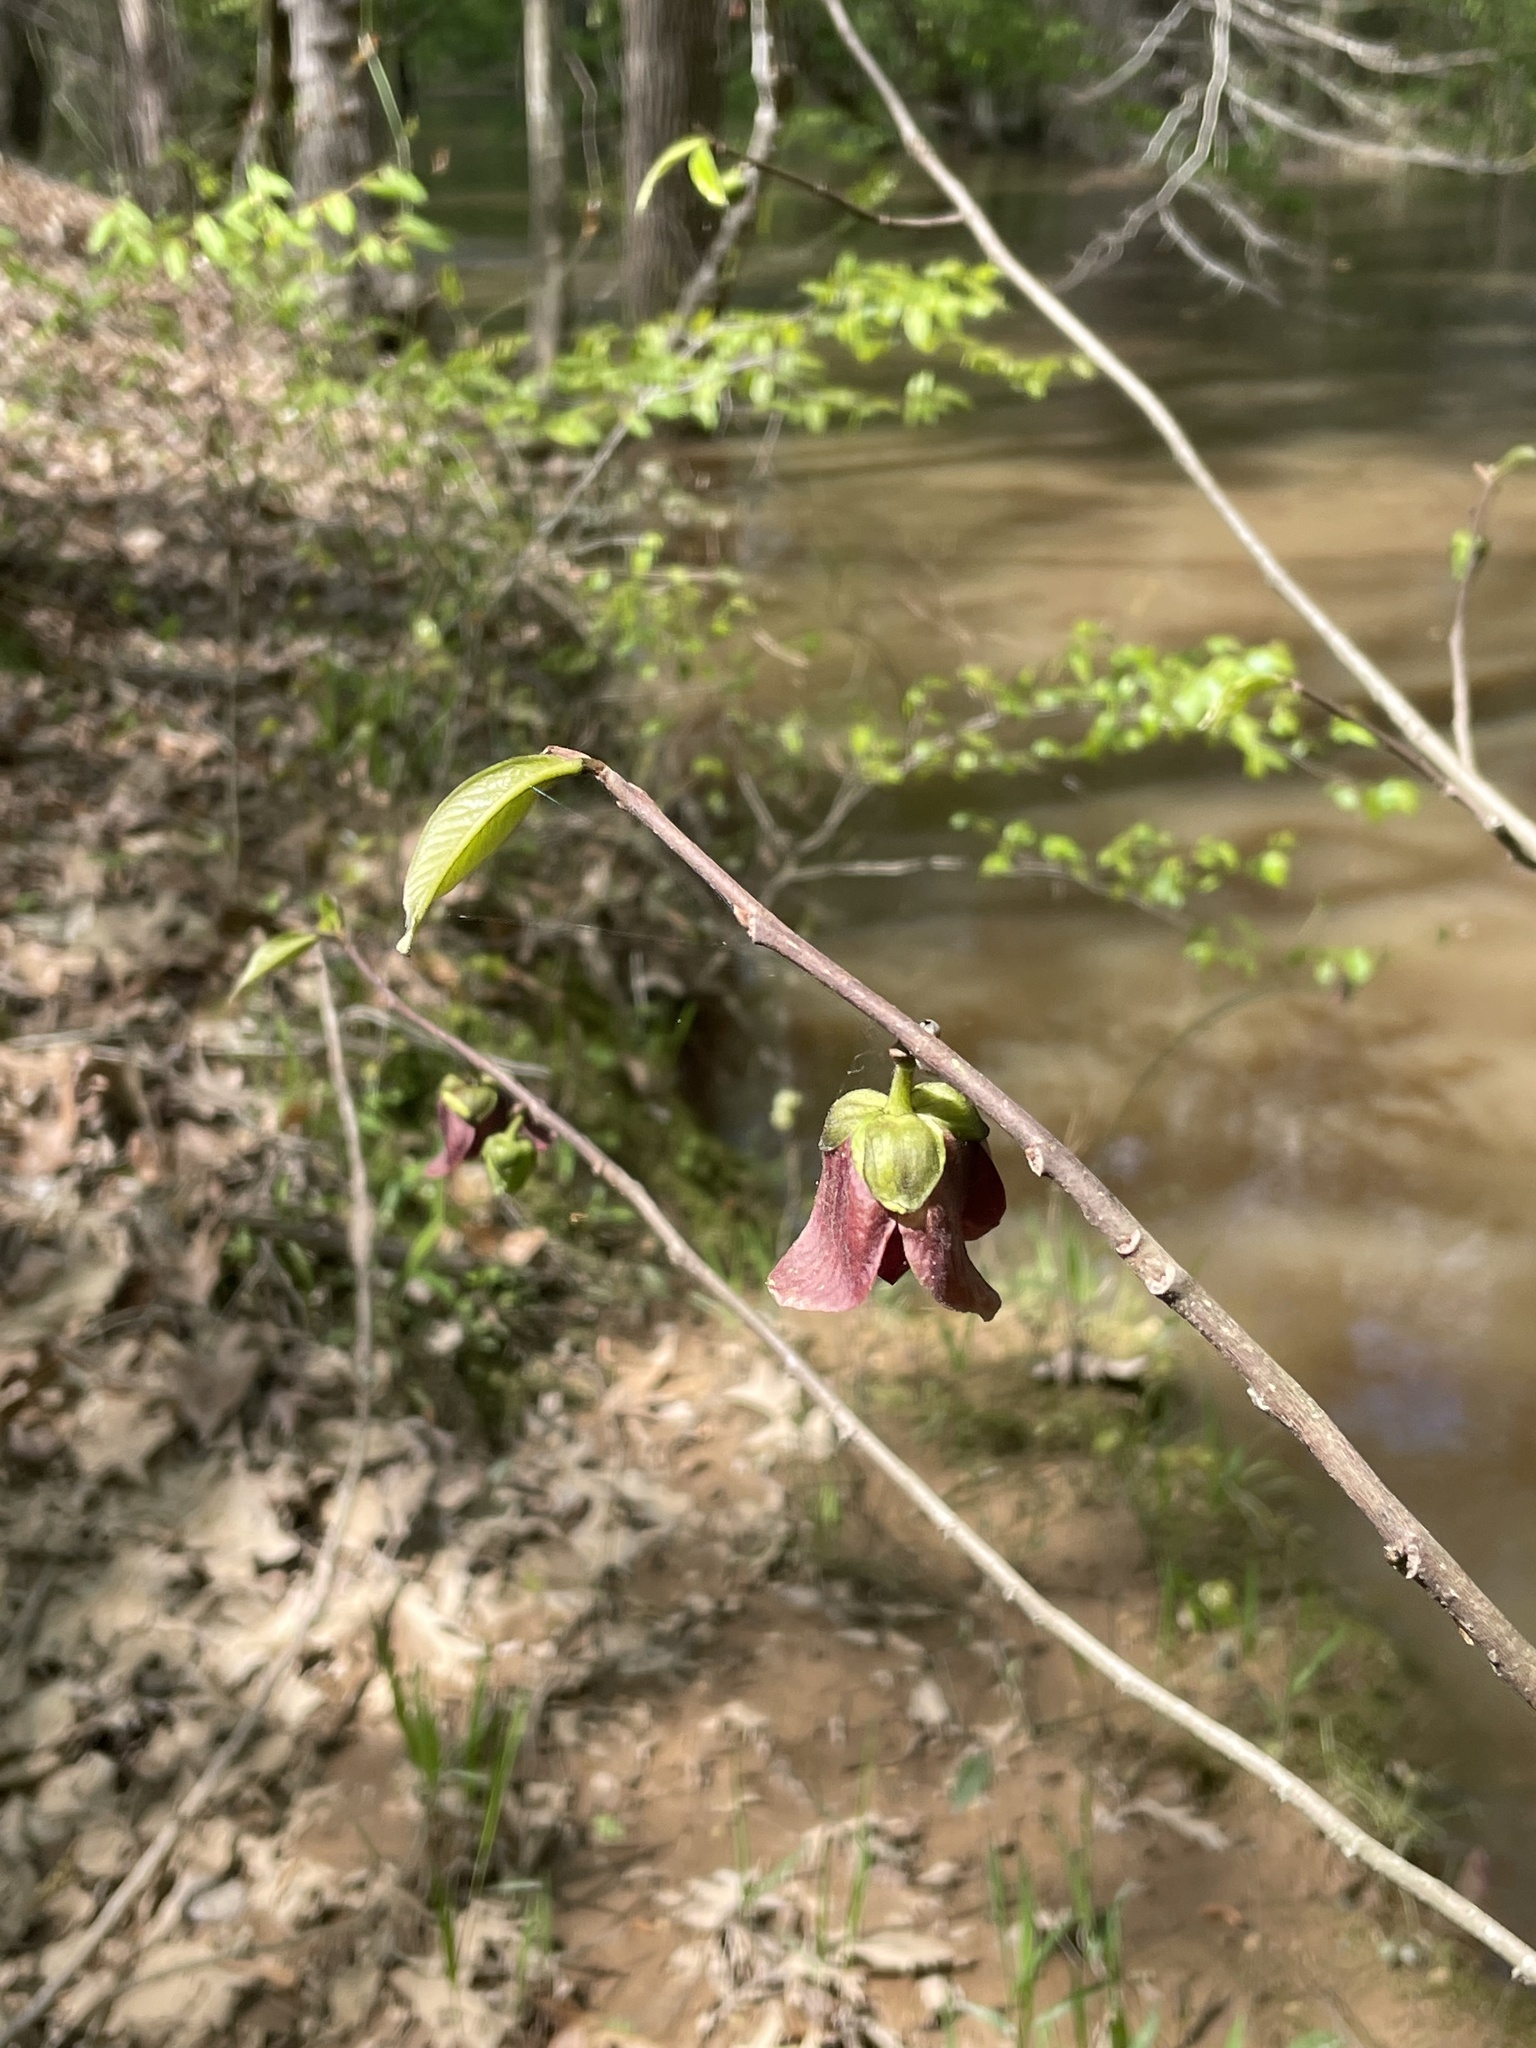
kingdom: Plantae
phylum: Tracheophyta
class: Magnoliopsida
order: Magnoliales
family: Annonaceae
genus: Asimina
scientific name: Asimina triloba
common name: Dog-banana
